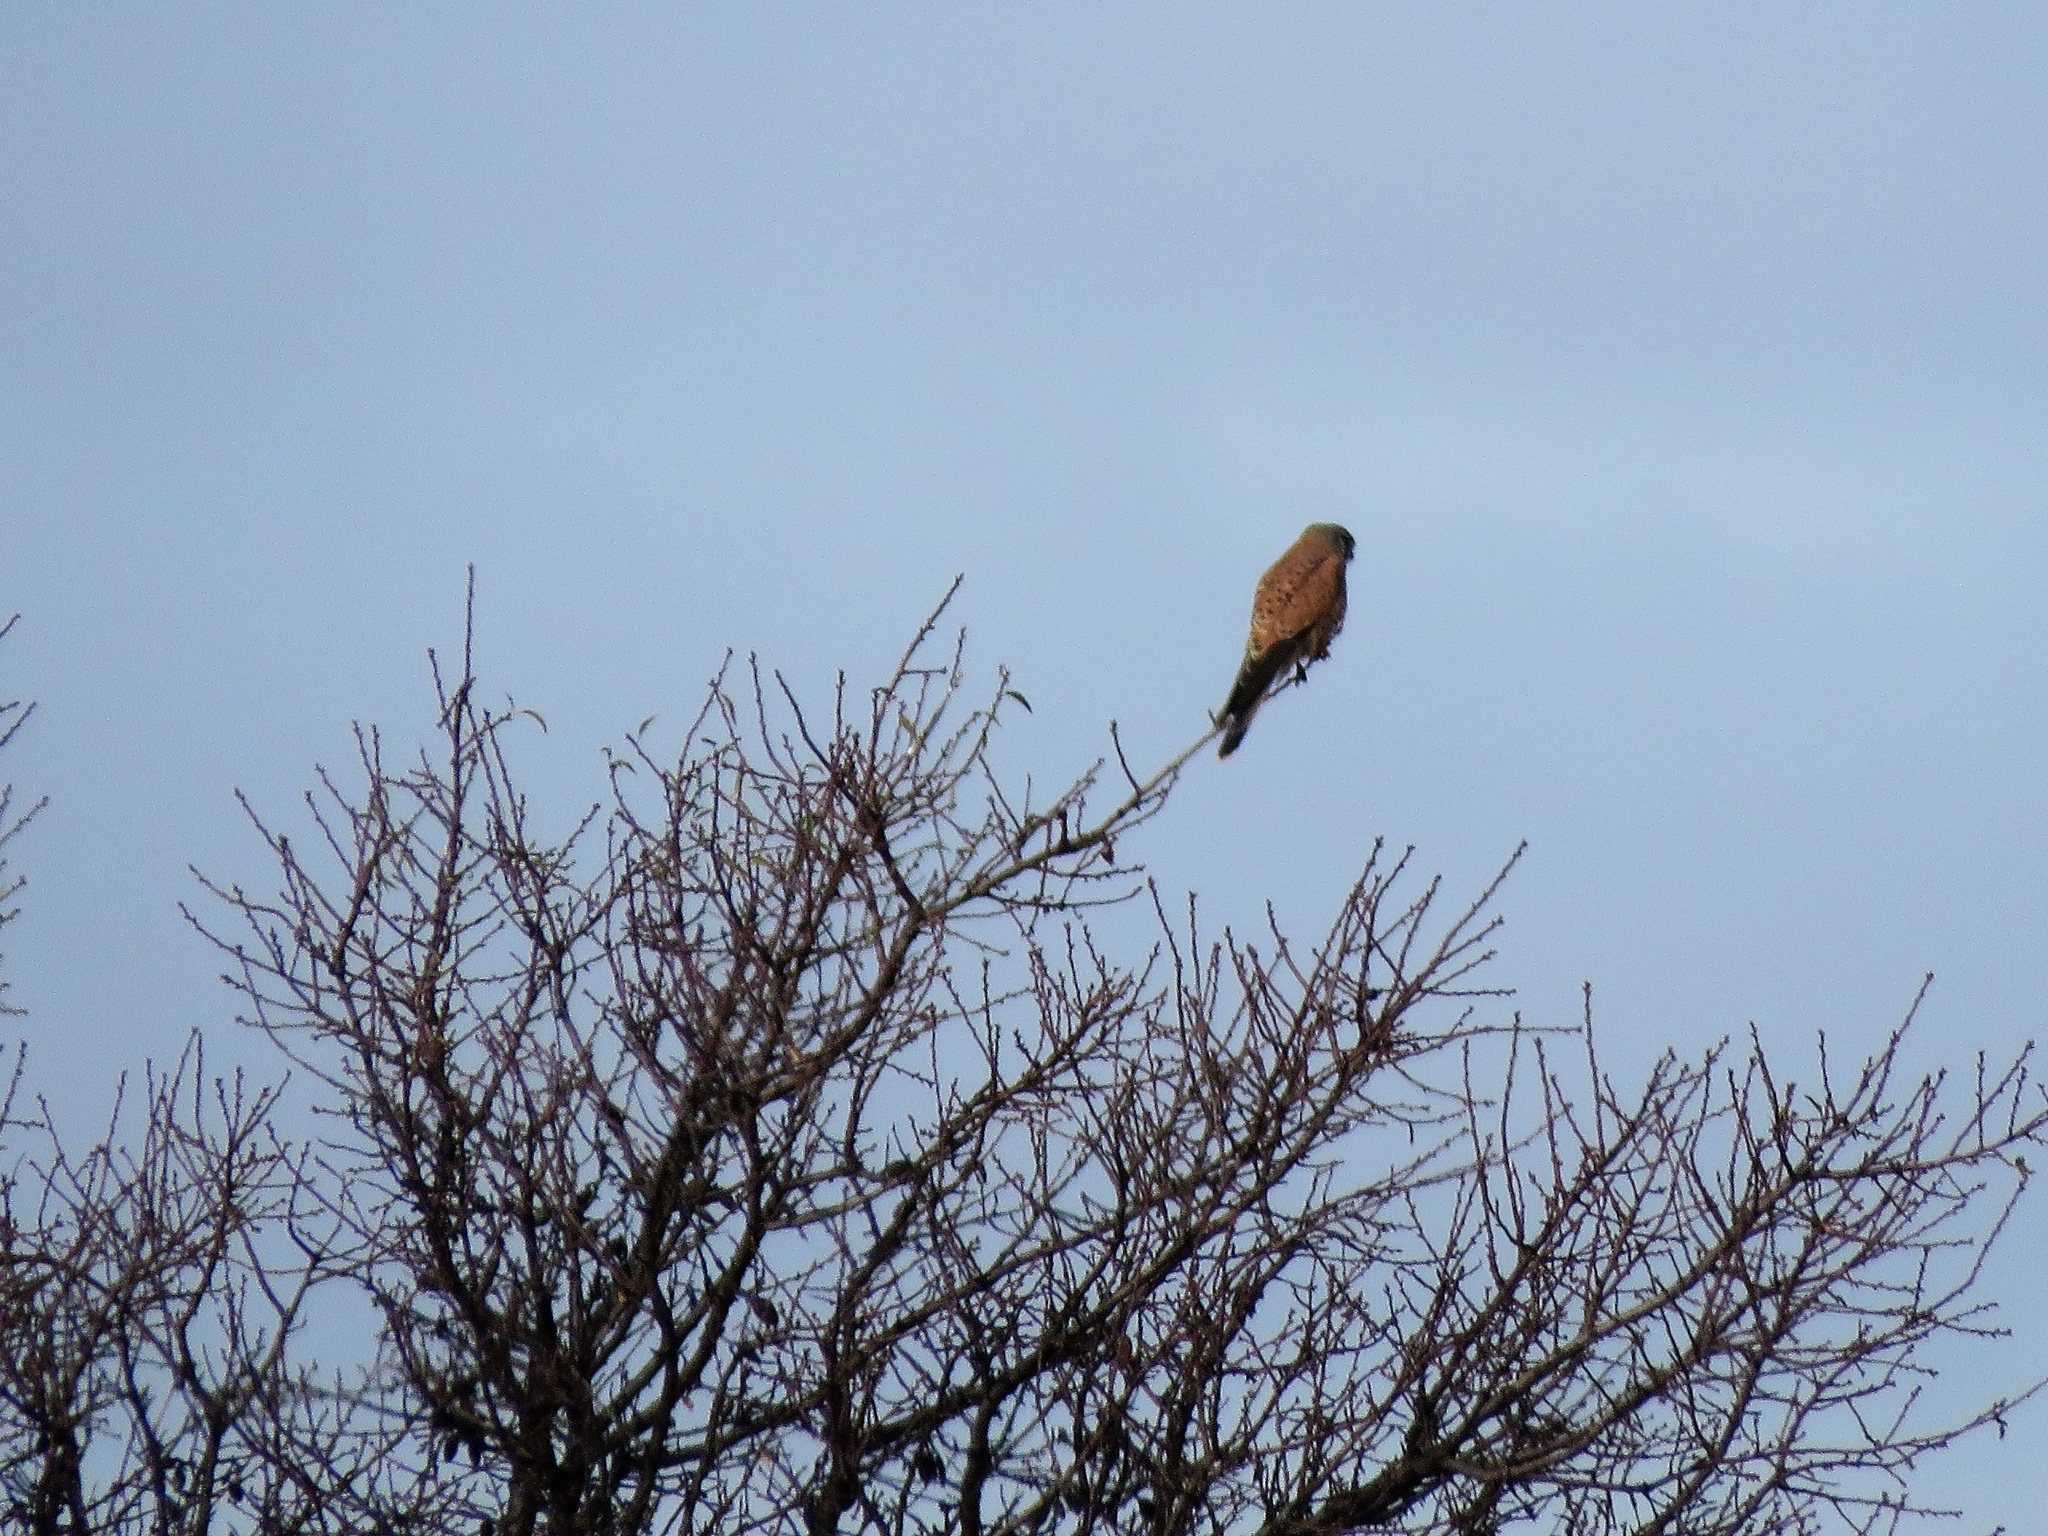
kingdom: Animalia
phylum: Chordata
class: Aves
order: Falconiformes
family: Falconidae
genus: Falco
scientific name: Falco tinnunculus
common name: Common kestrel
